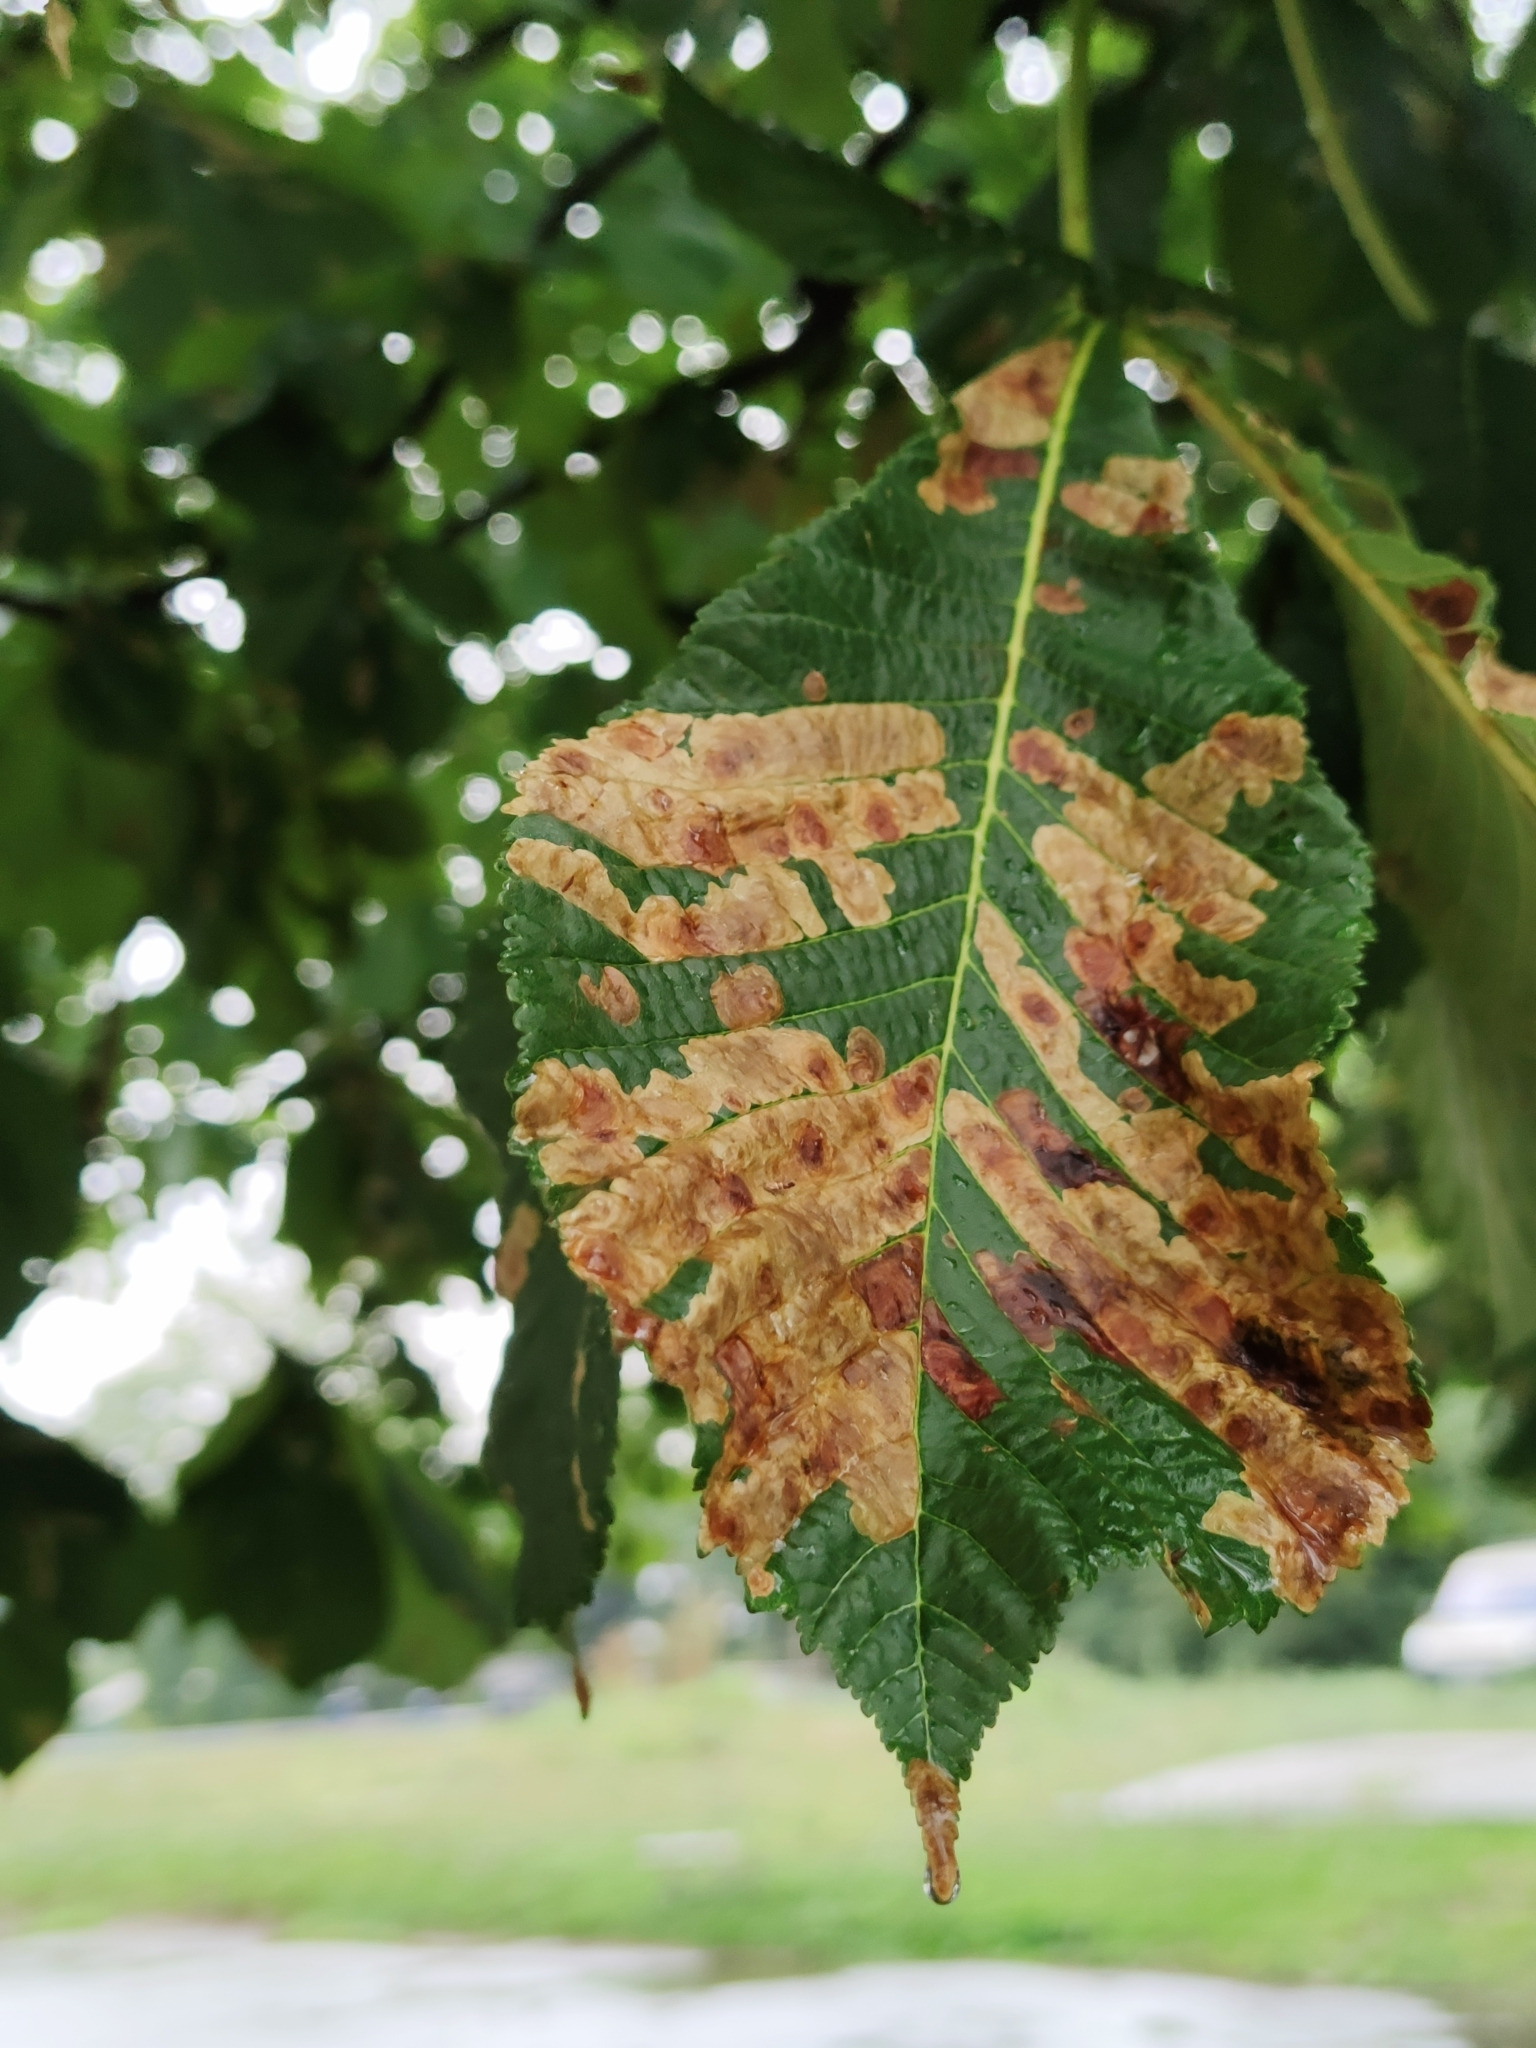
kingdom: Animalia
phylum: Arthropoda
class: Insecta
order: Lepidoptera
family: Gracillariidae
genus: Cameraria
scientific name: Cameraria ohridella
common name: Horse-chestnut leaf-miner
